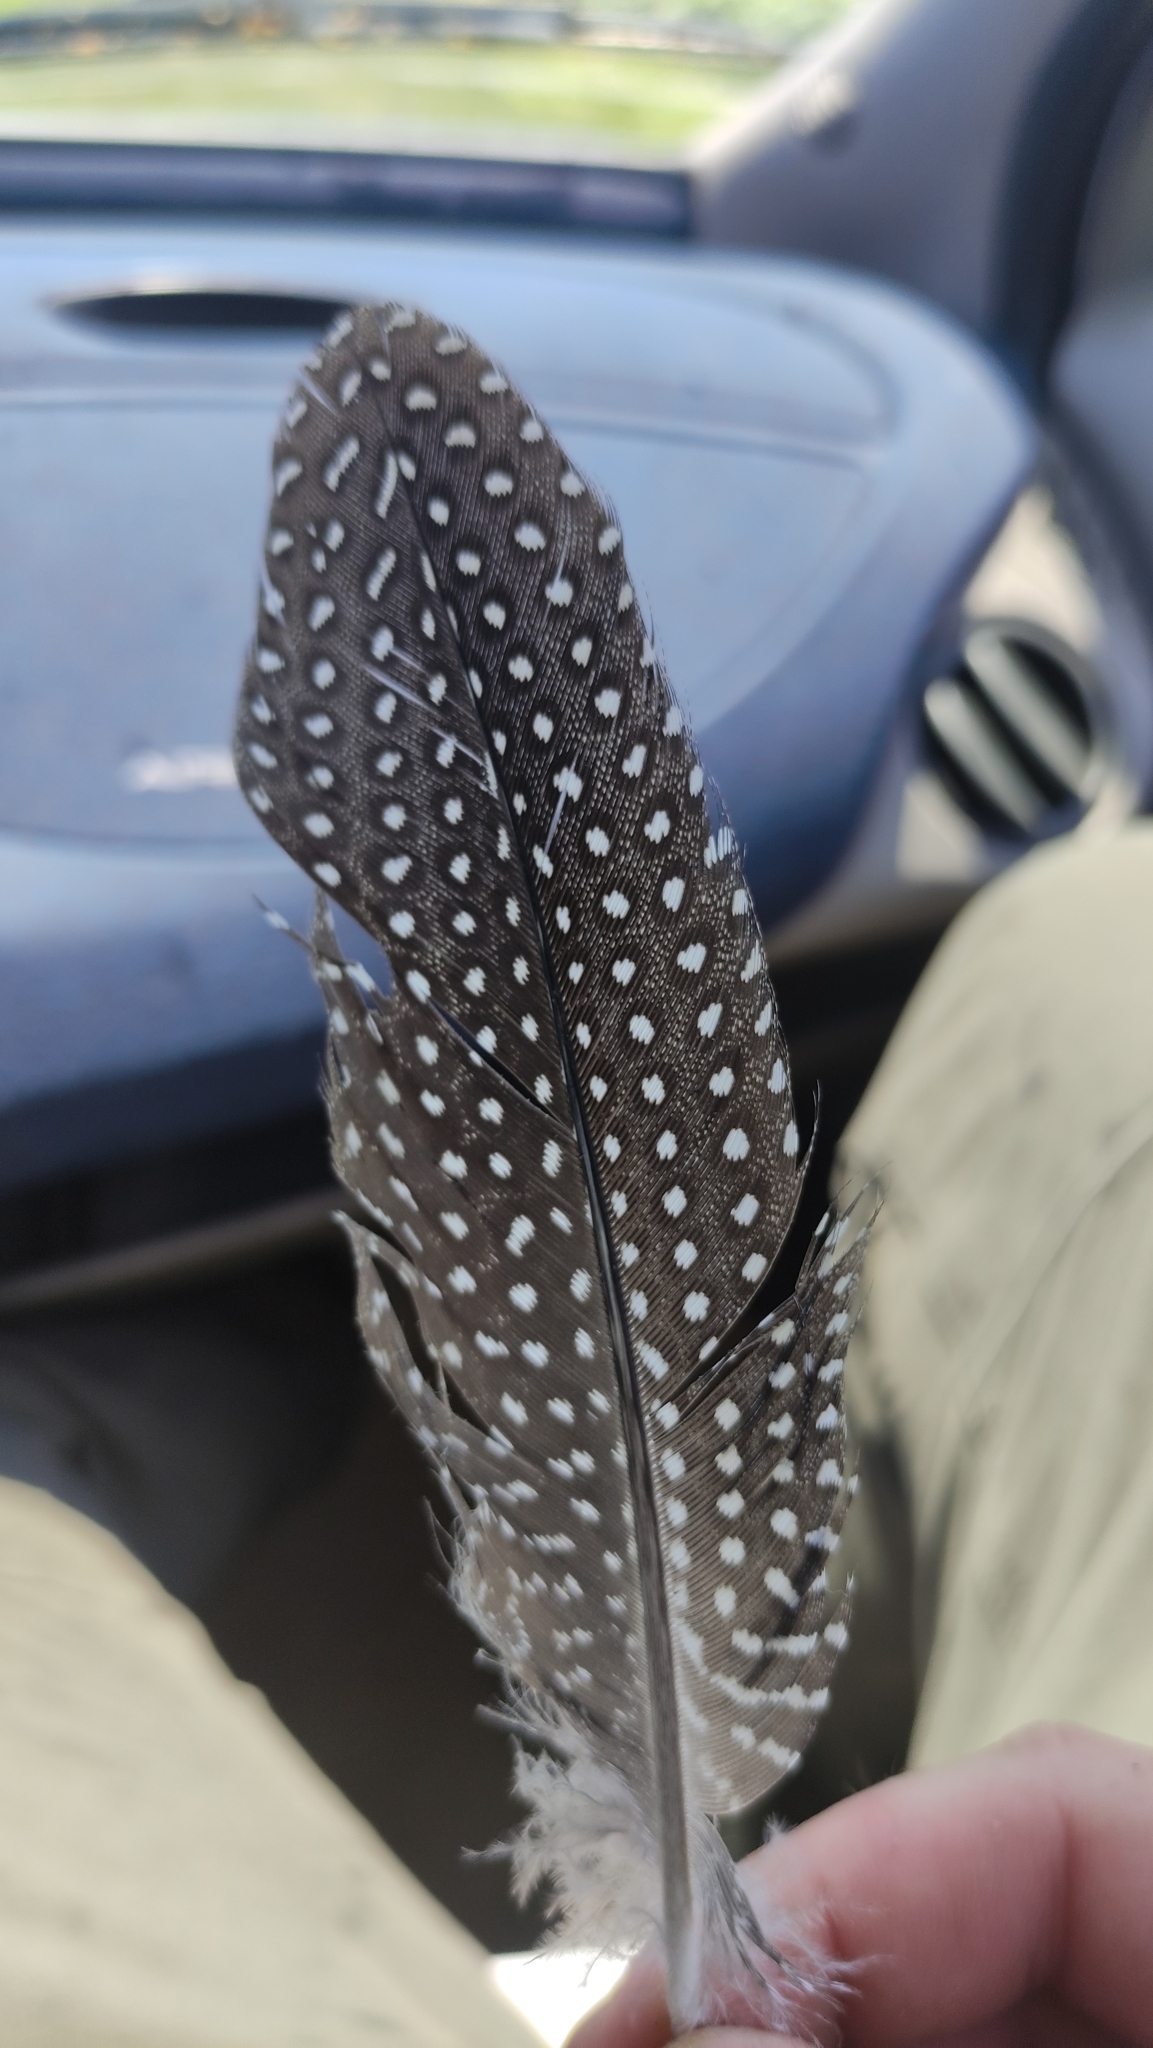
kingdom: Animalia
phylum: Chordata
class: Aves
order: Galliformes
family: Numididae
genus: Numida
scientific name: Numida meleagris
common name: Helmeted guineafowl
